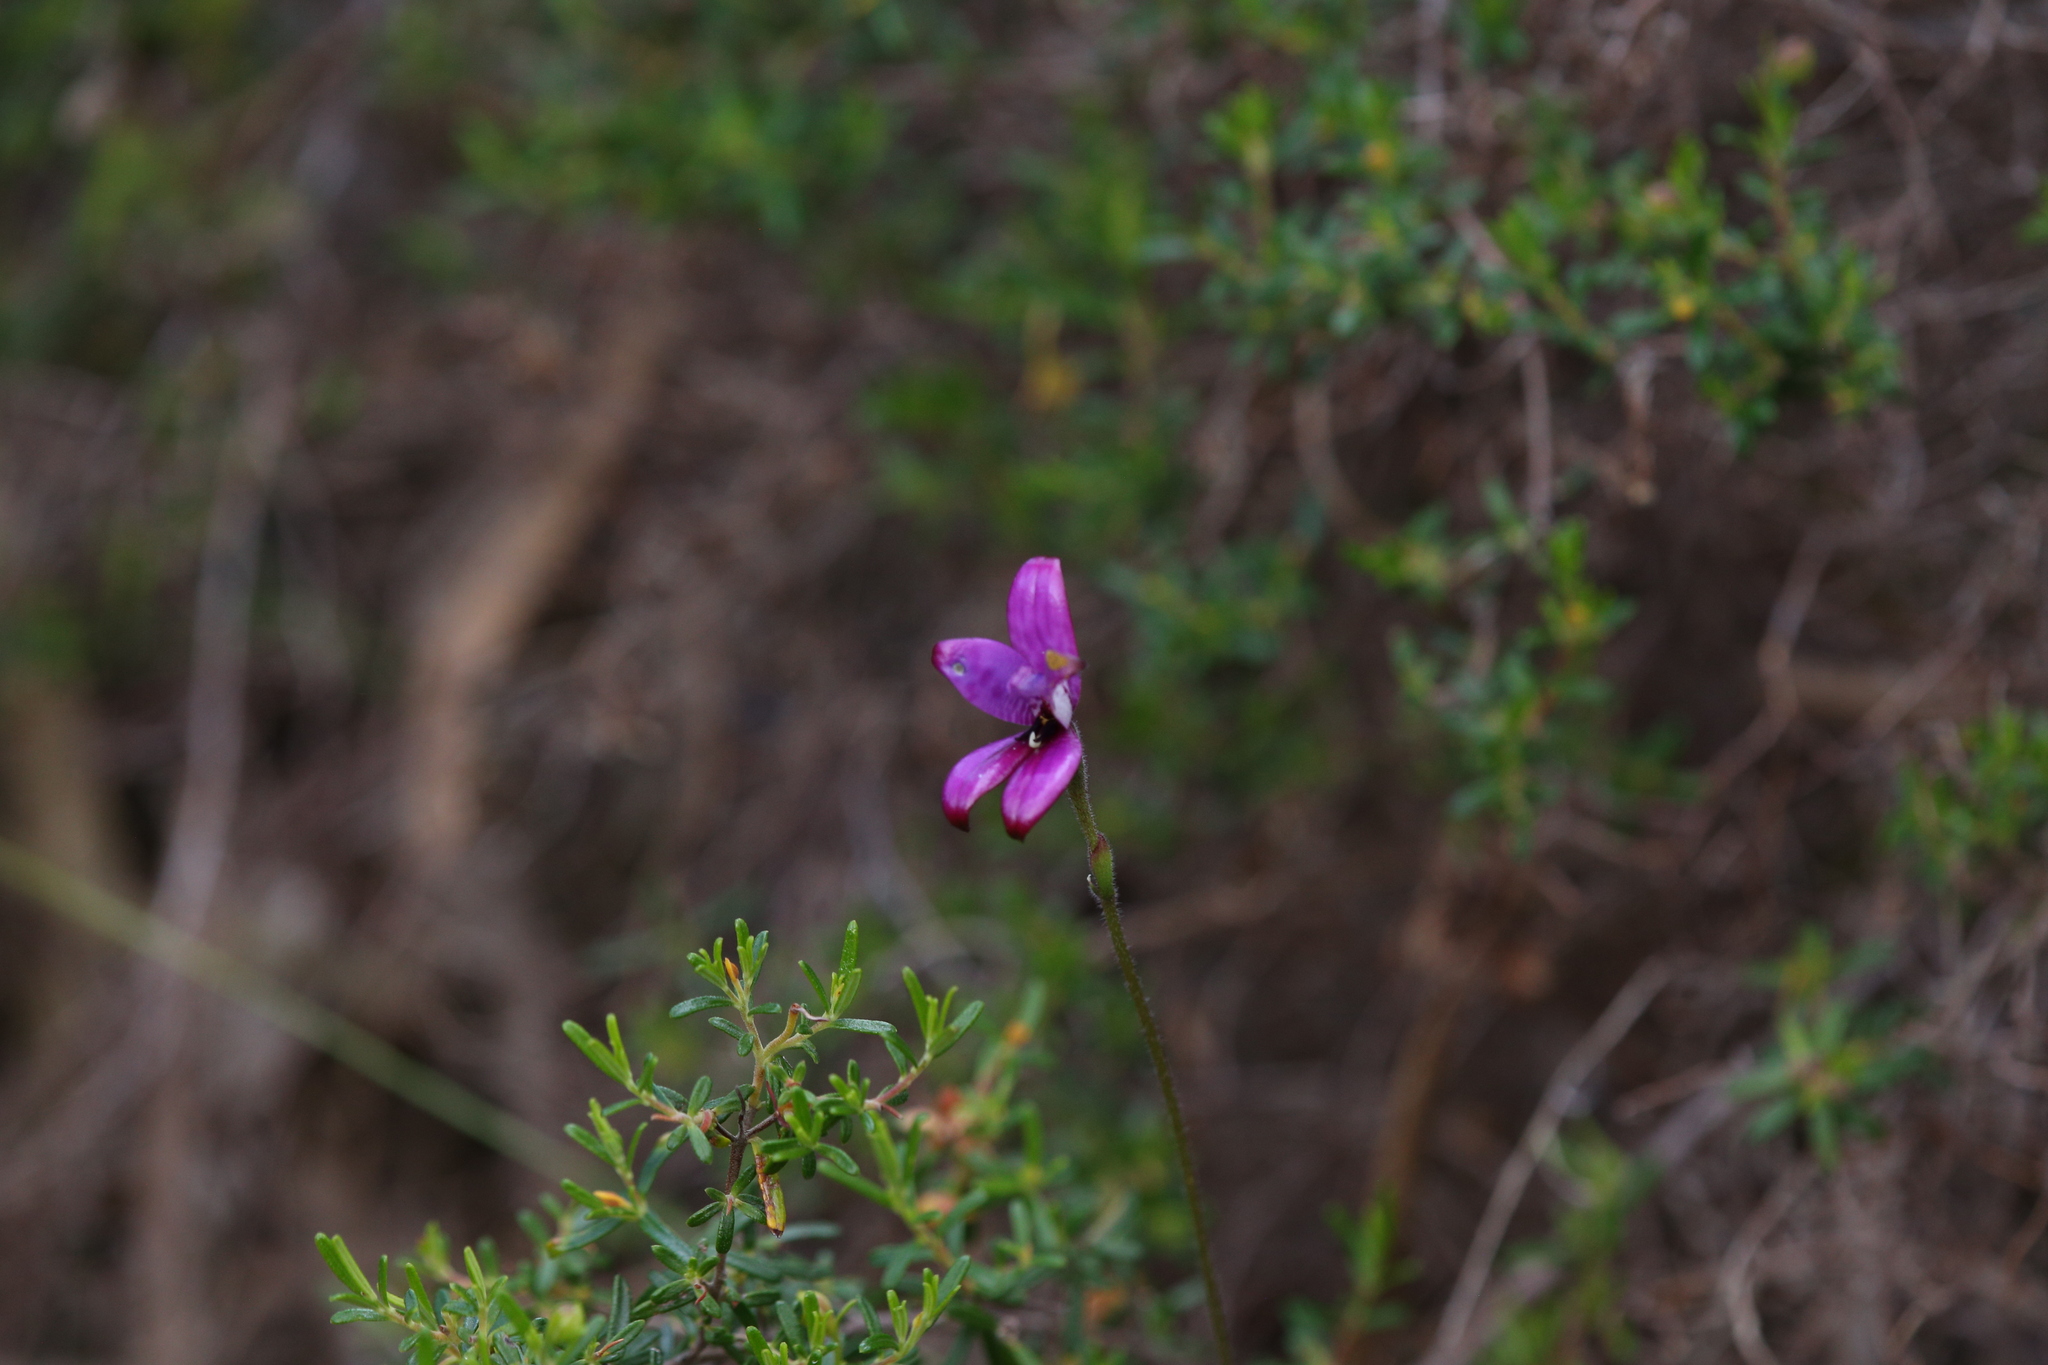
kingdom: Plantae
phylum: Tracheophyta
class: Liliopsida
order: Asparagales
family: Orchidaceae
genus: Caladenia
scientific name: Caladenia brunonis
